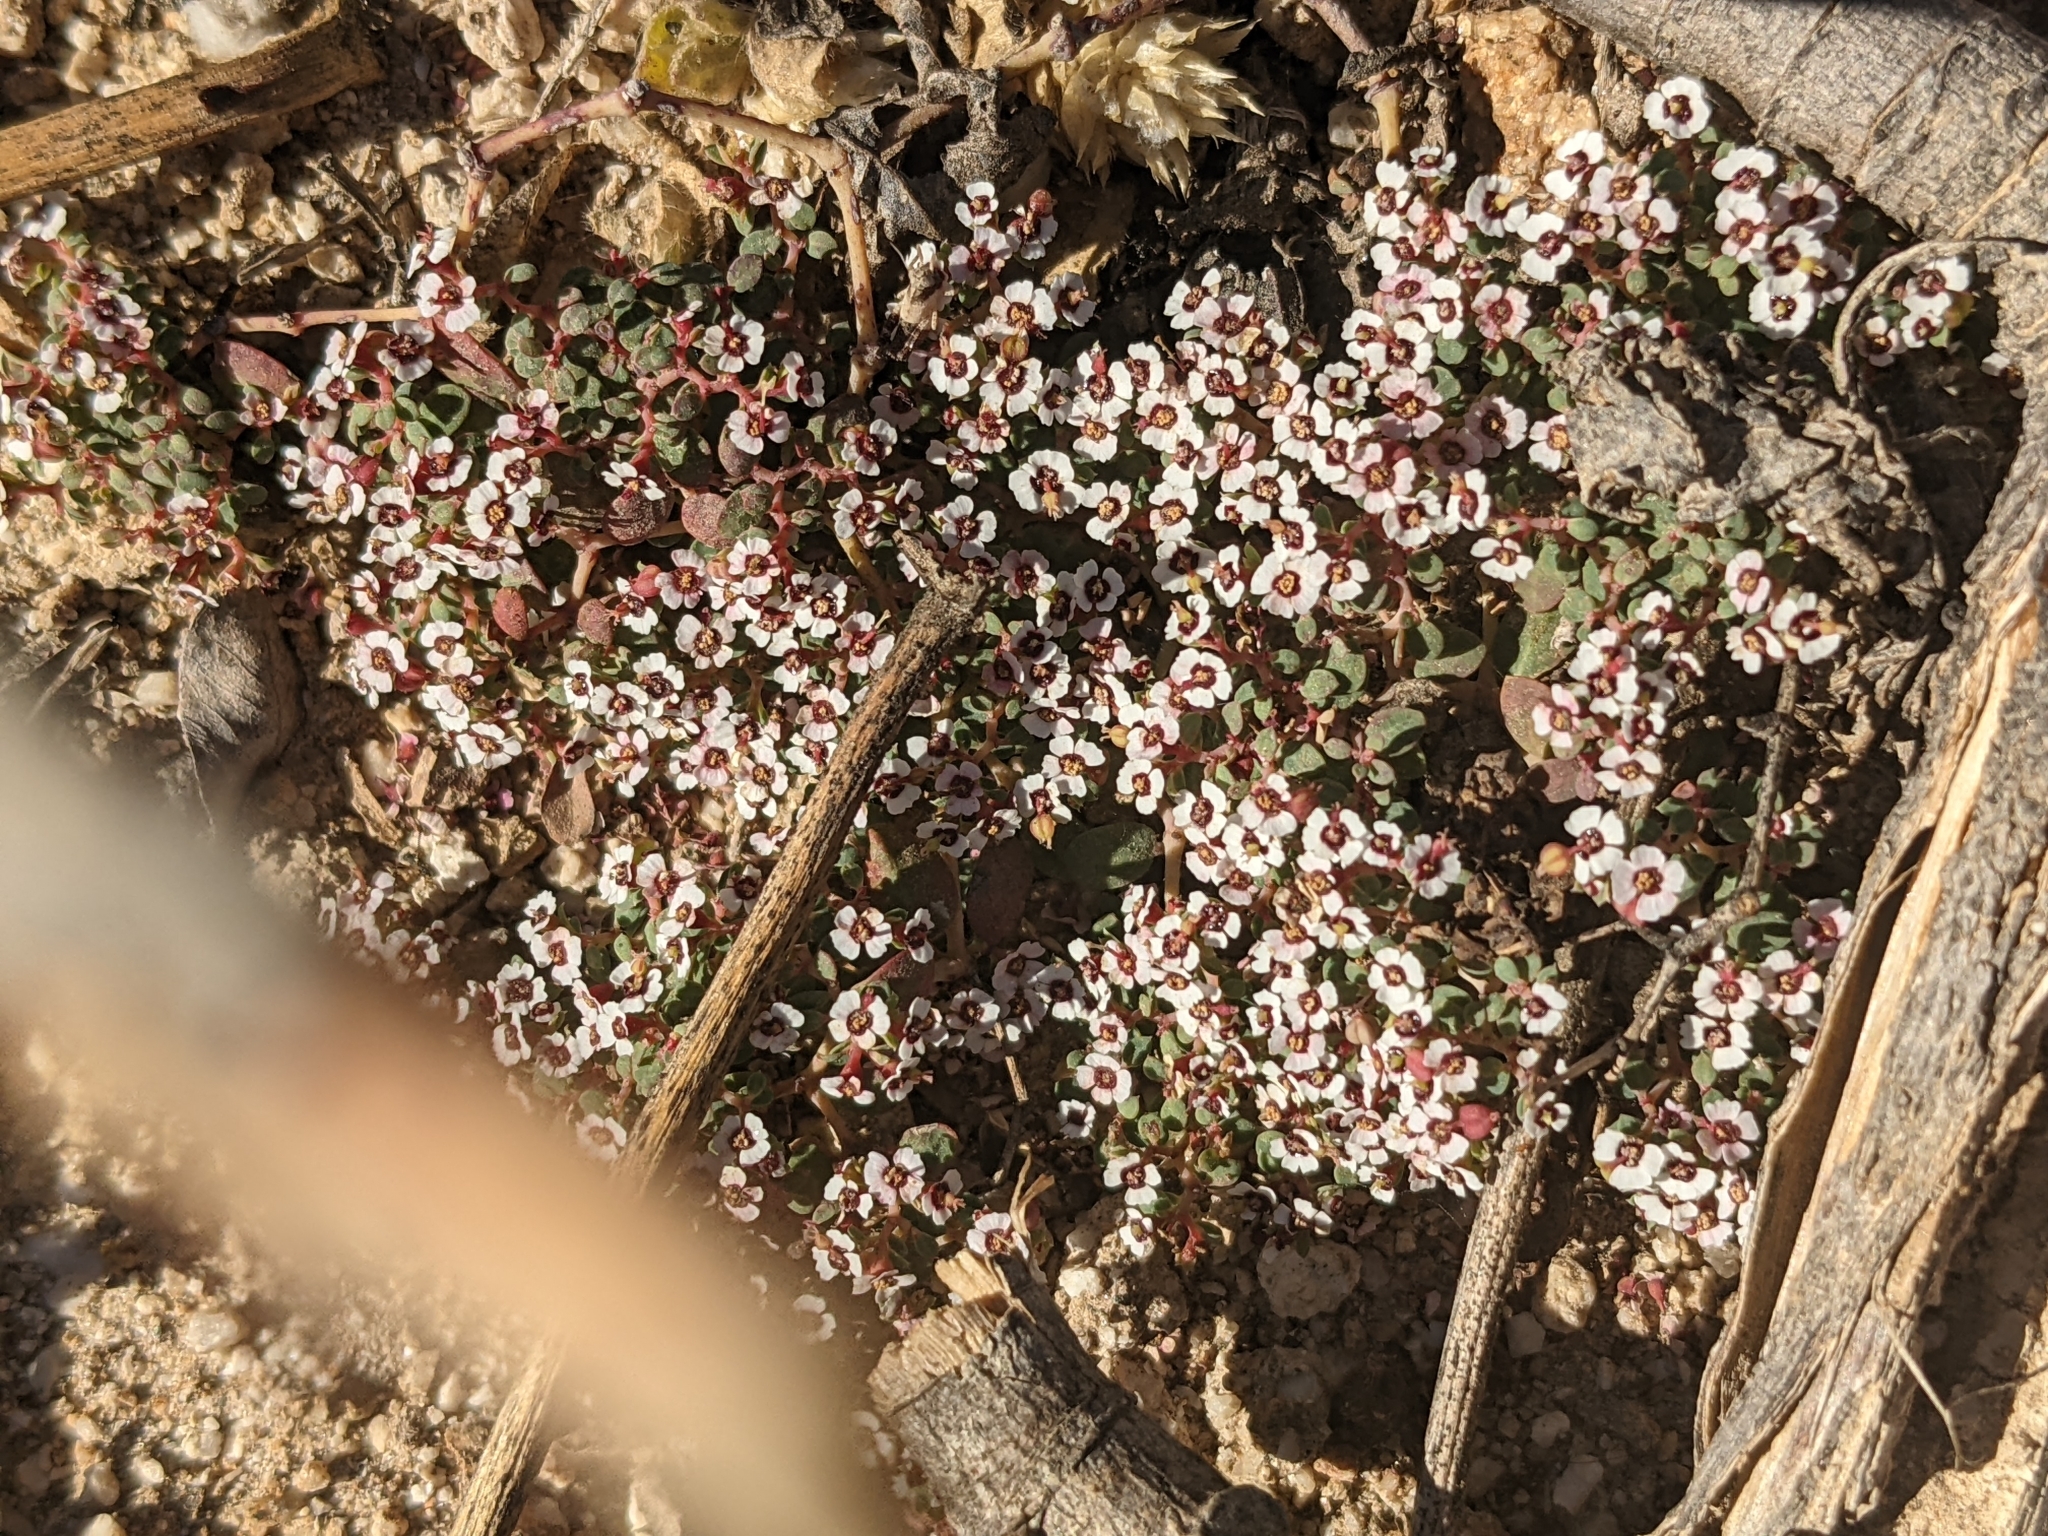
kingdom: Plantae
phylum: Tracheophyta
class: Magnoliopsida
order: Malpighiales
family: Euphorbiaceae
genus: Euphorbia
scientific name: Euphorbia polycarpa
